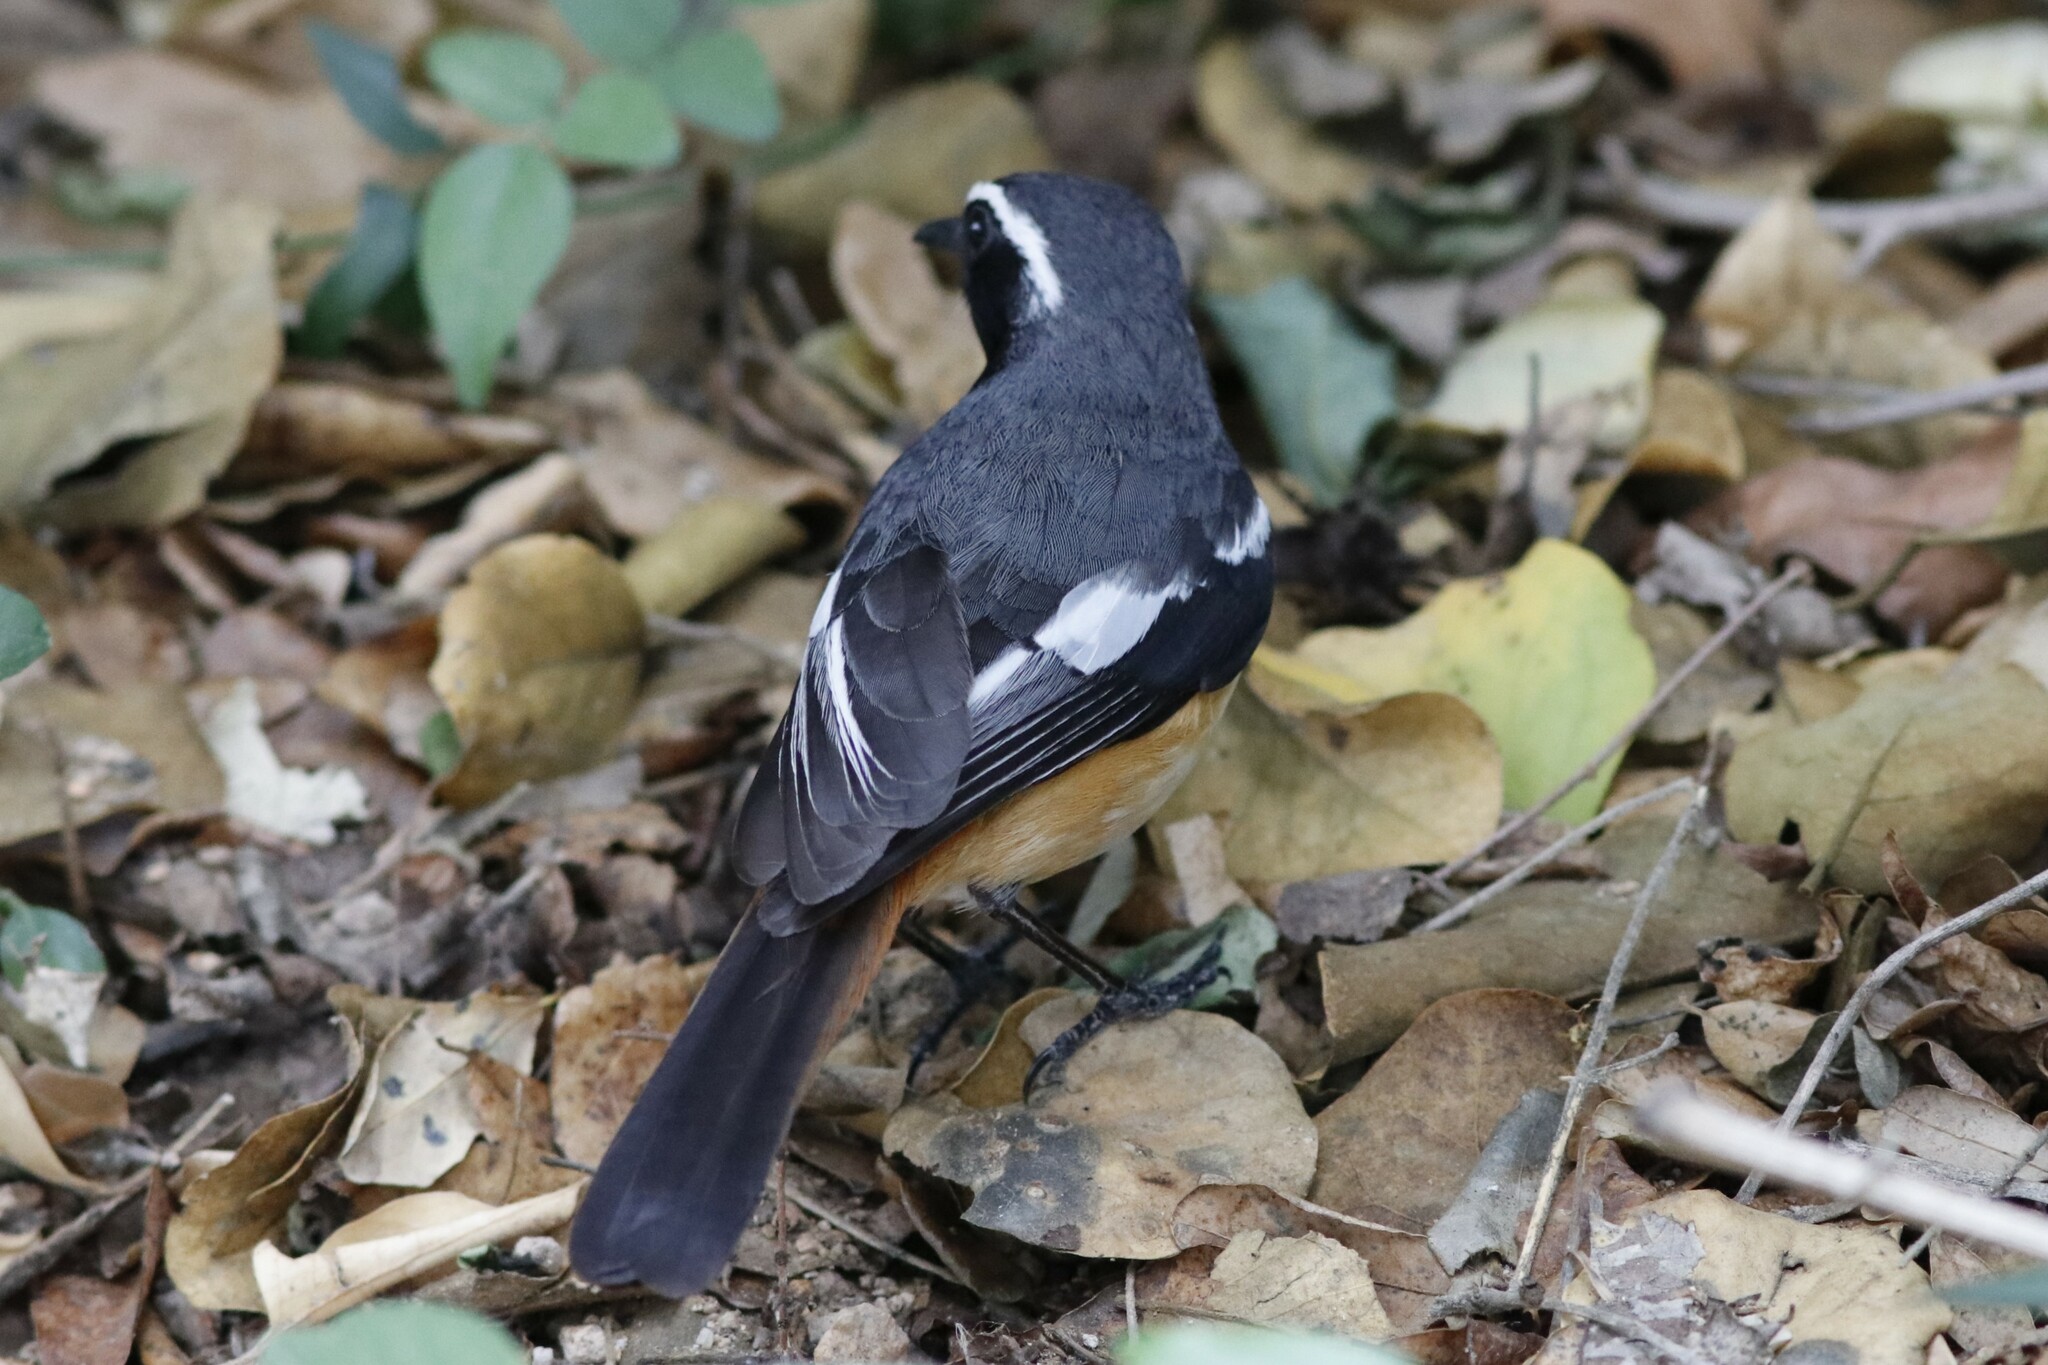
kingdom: Animalia
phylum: Chordata
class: Aves
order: Passeriformes
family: Muscicapidae
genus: Cossypha
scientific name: Cossypha humeralis
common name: White-throated robin-chat
